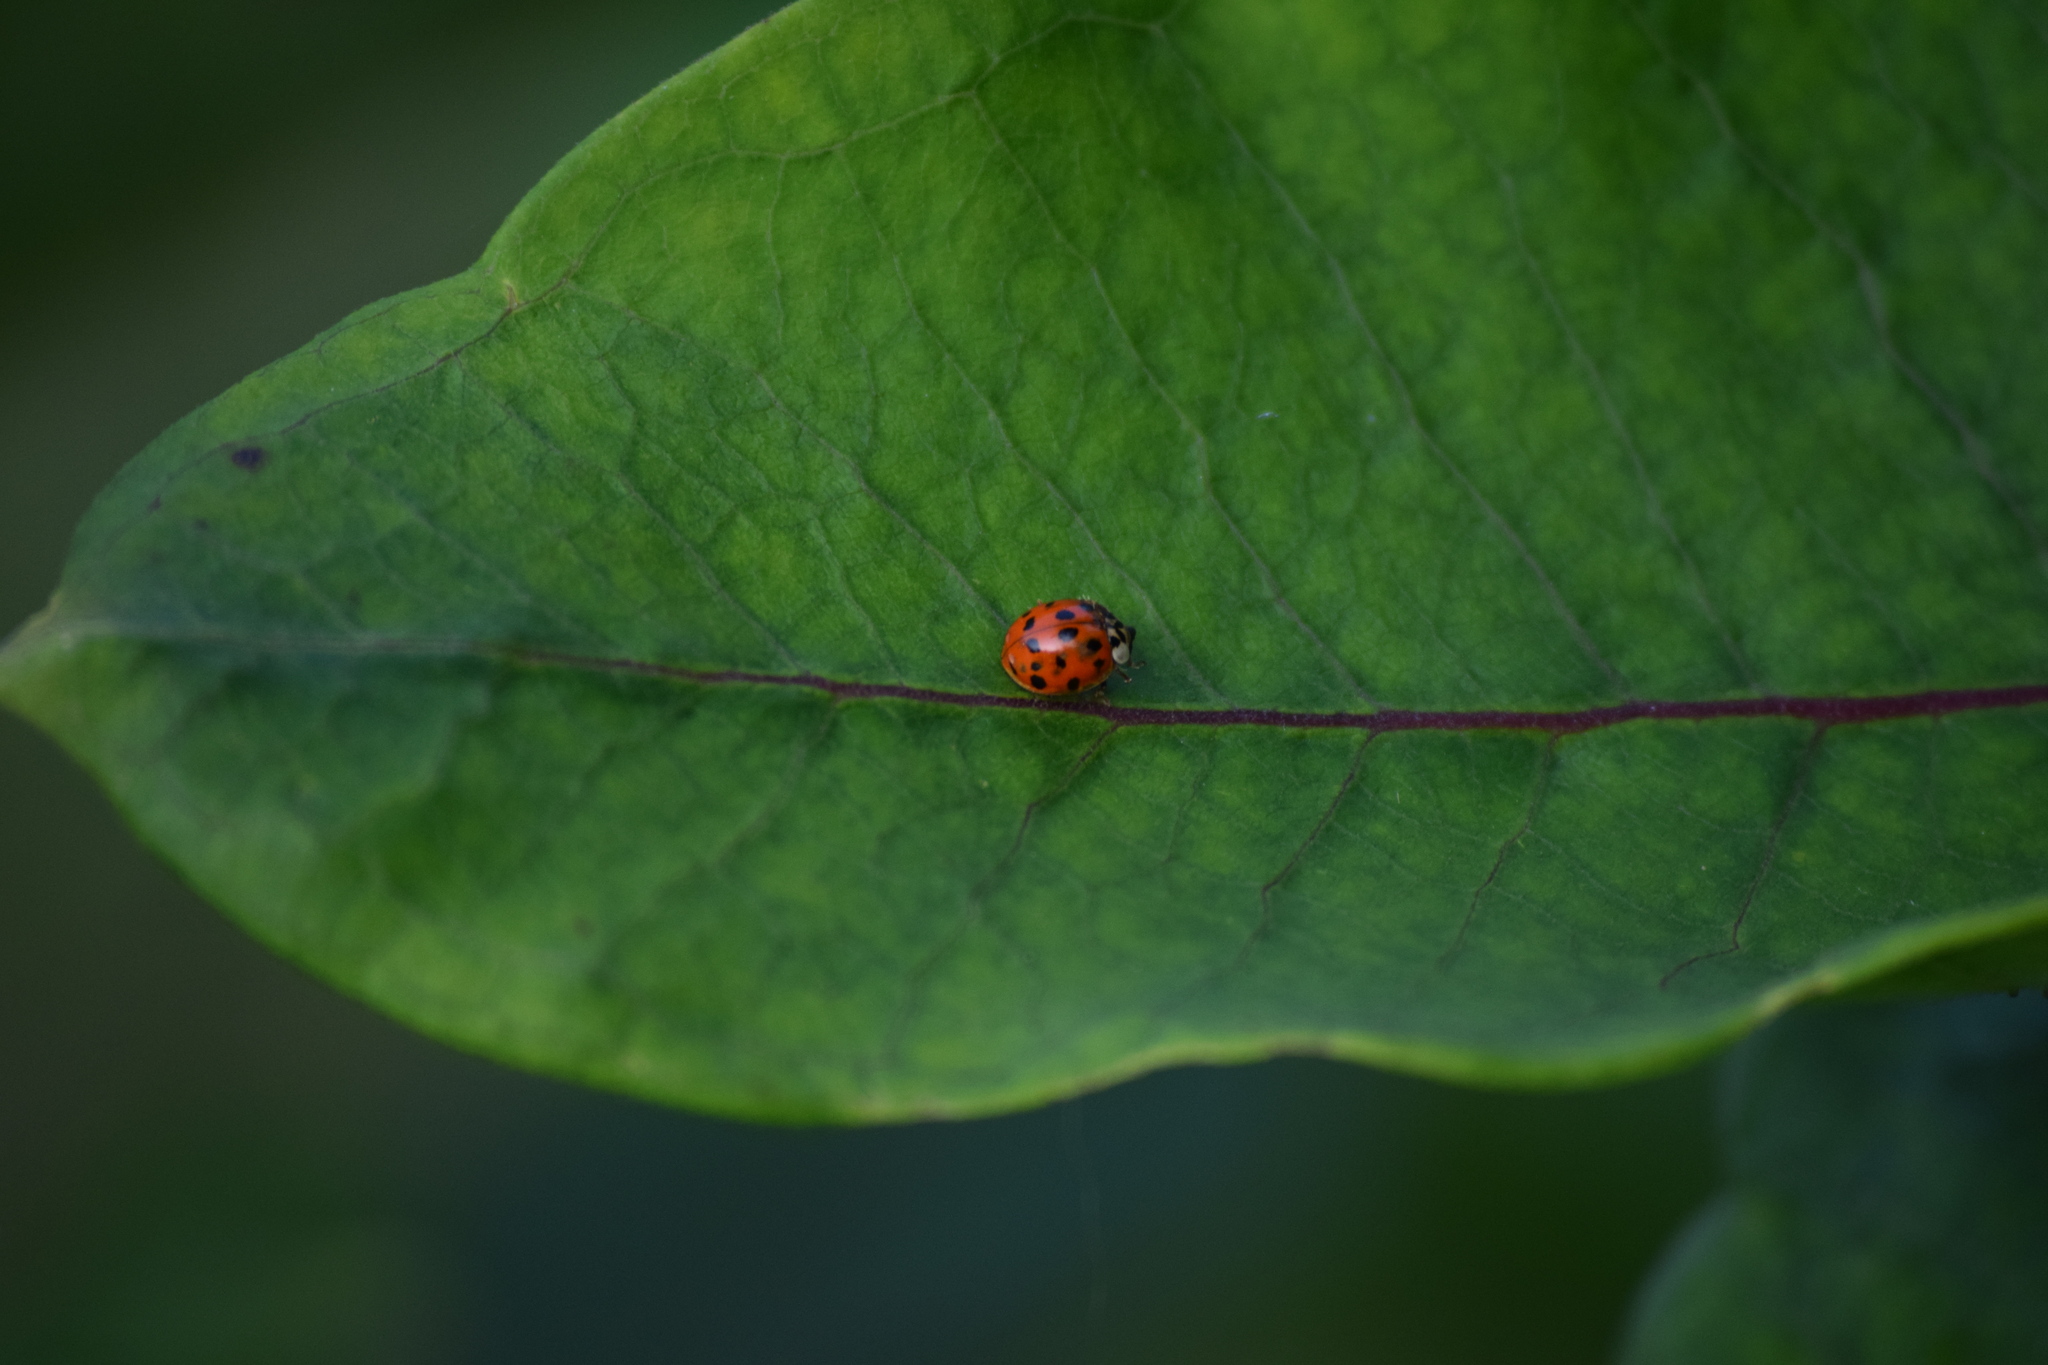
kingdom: Animalia
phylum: Arthropoda
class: Insecta
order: Coleoptera
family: Coccinellidae
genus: Harmonia
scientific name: Harmonia axyridis
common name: Harlequin ladybird
